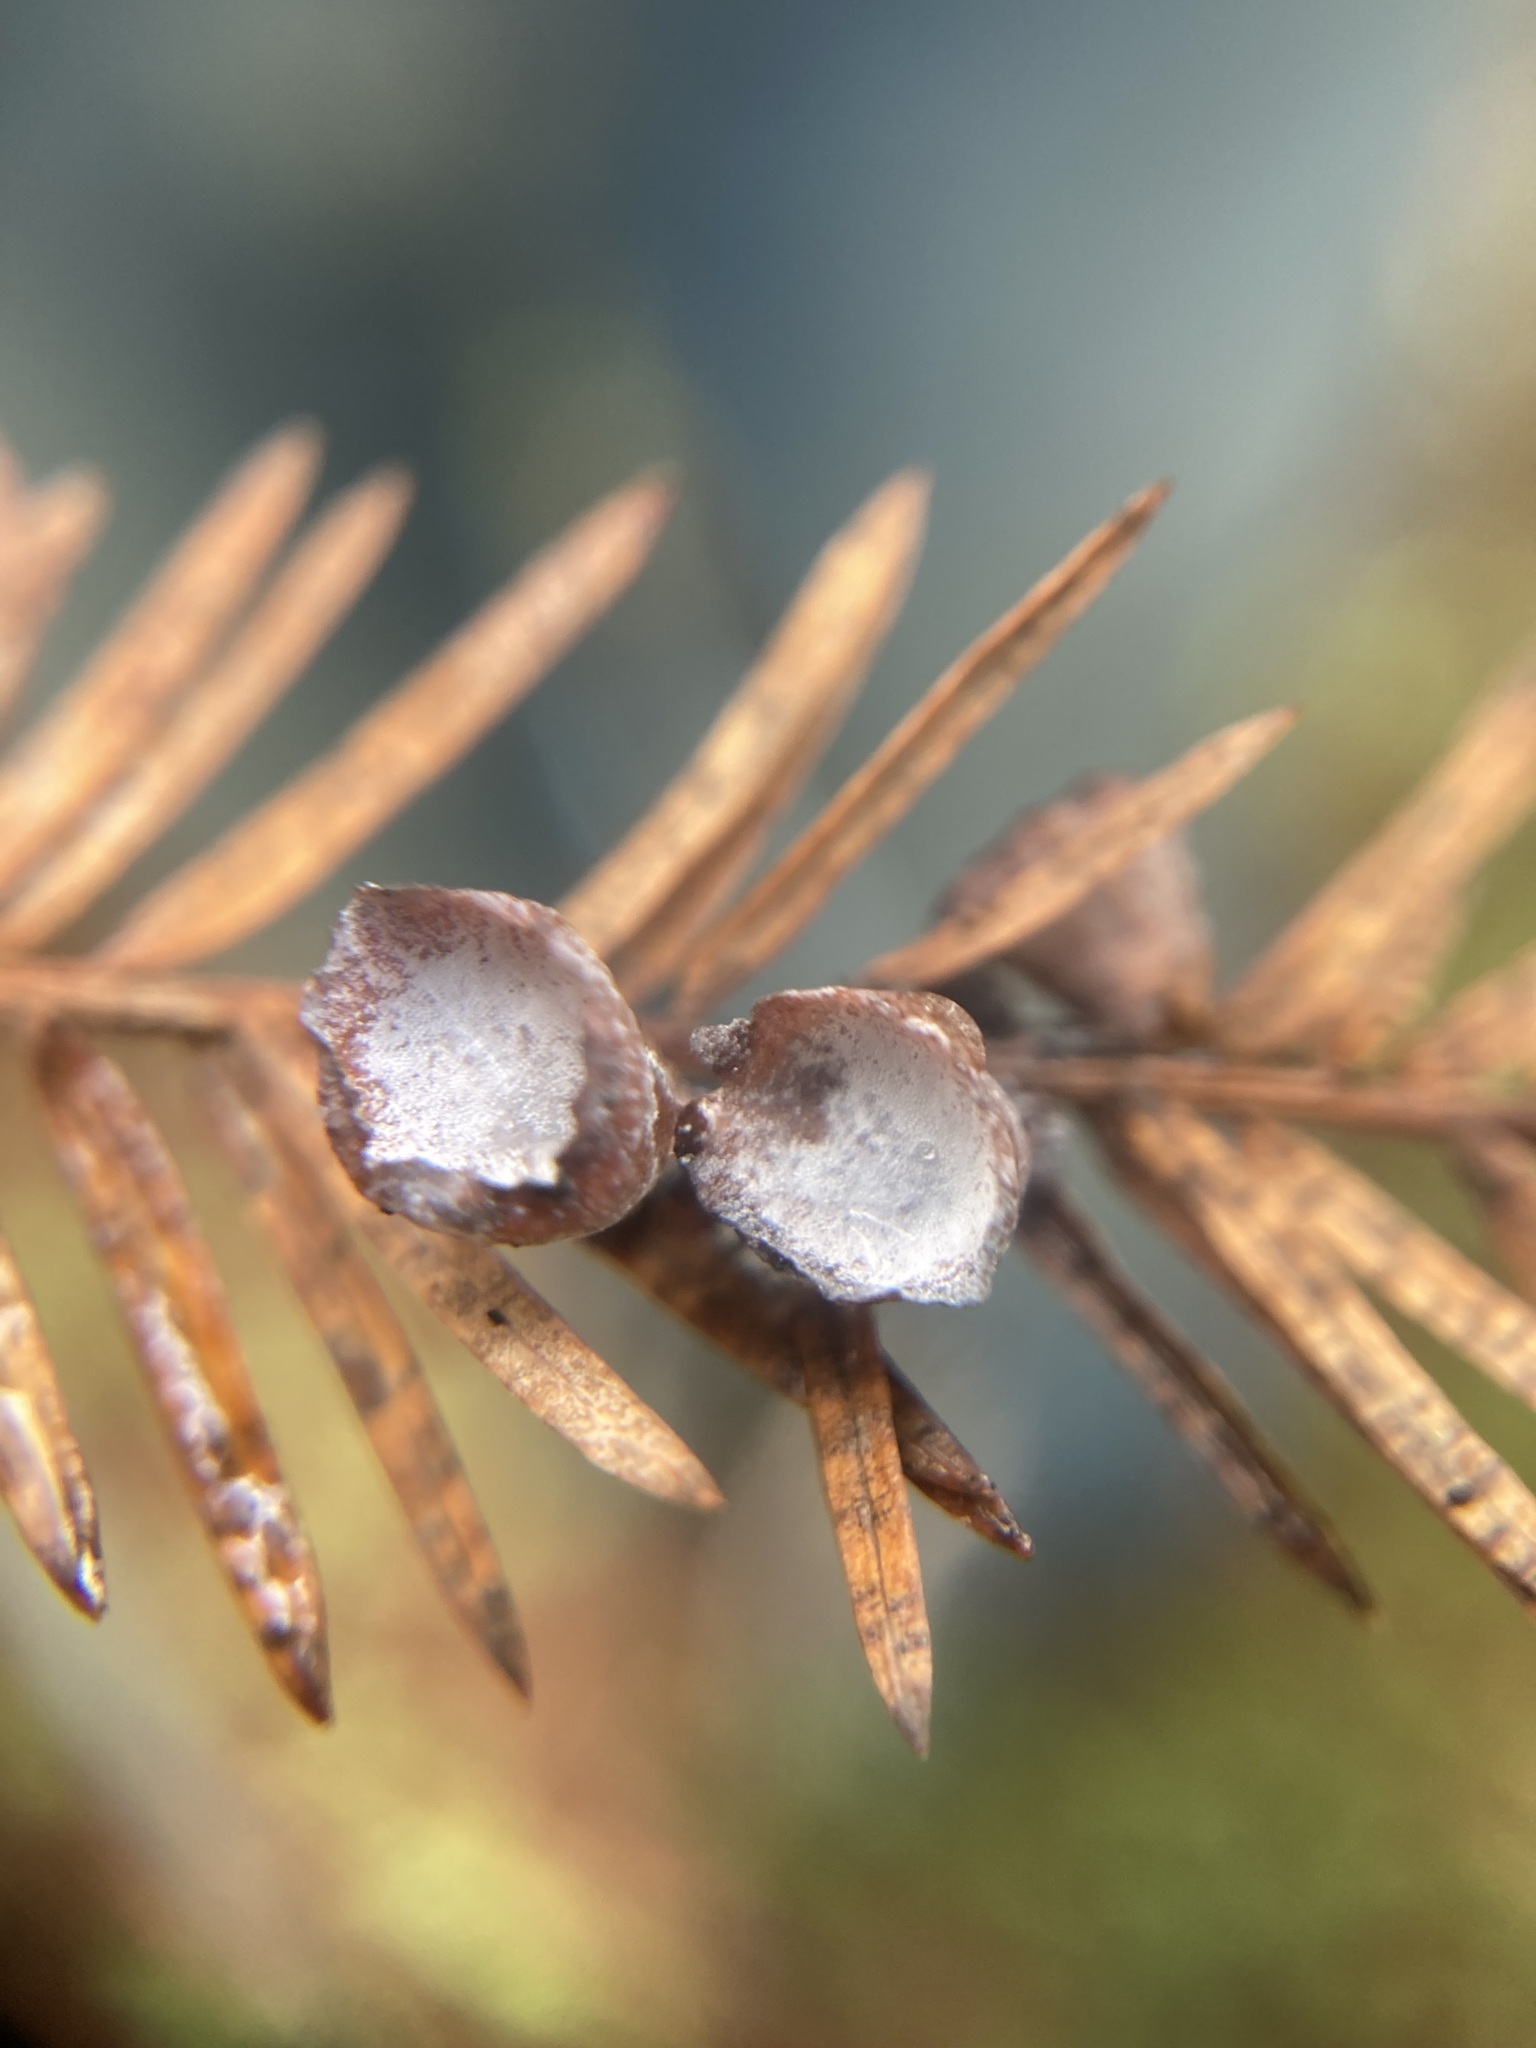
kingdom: Animalia
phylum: Arthropoda
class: Insecta
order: Diptera
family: Cecidomyiidae
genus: Taxodiomyia
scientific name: Taxodiomyia cupressi
